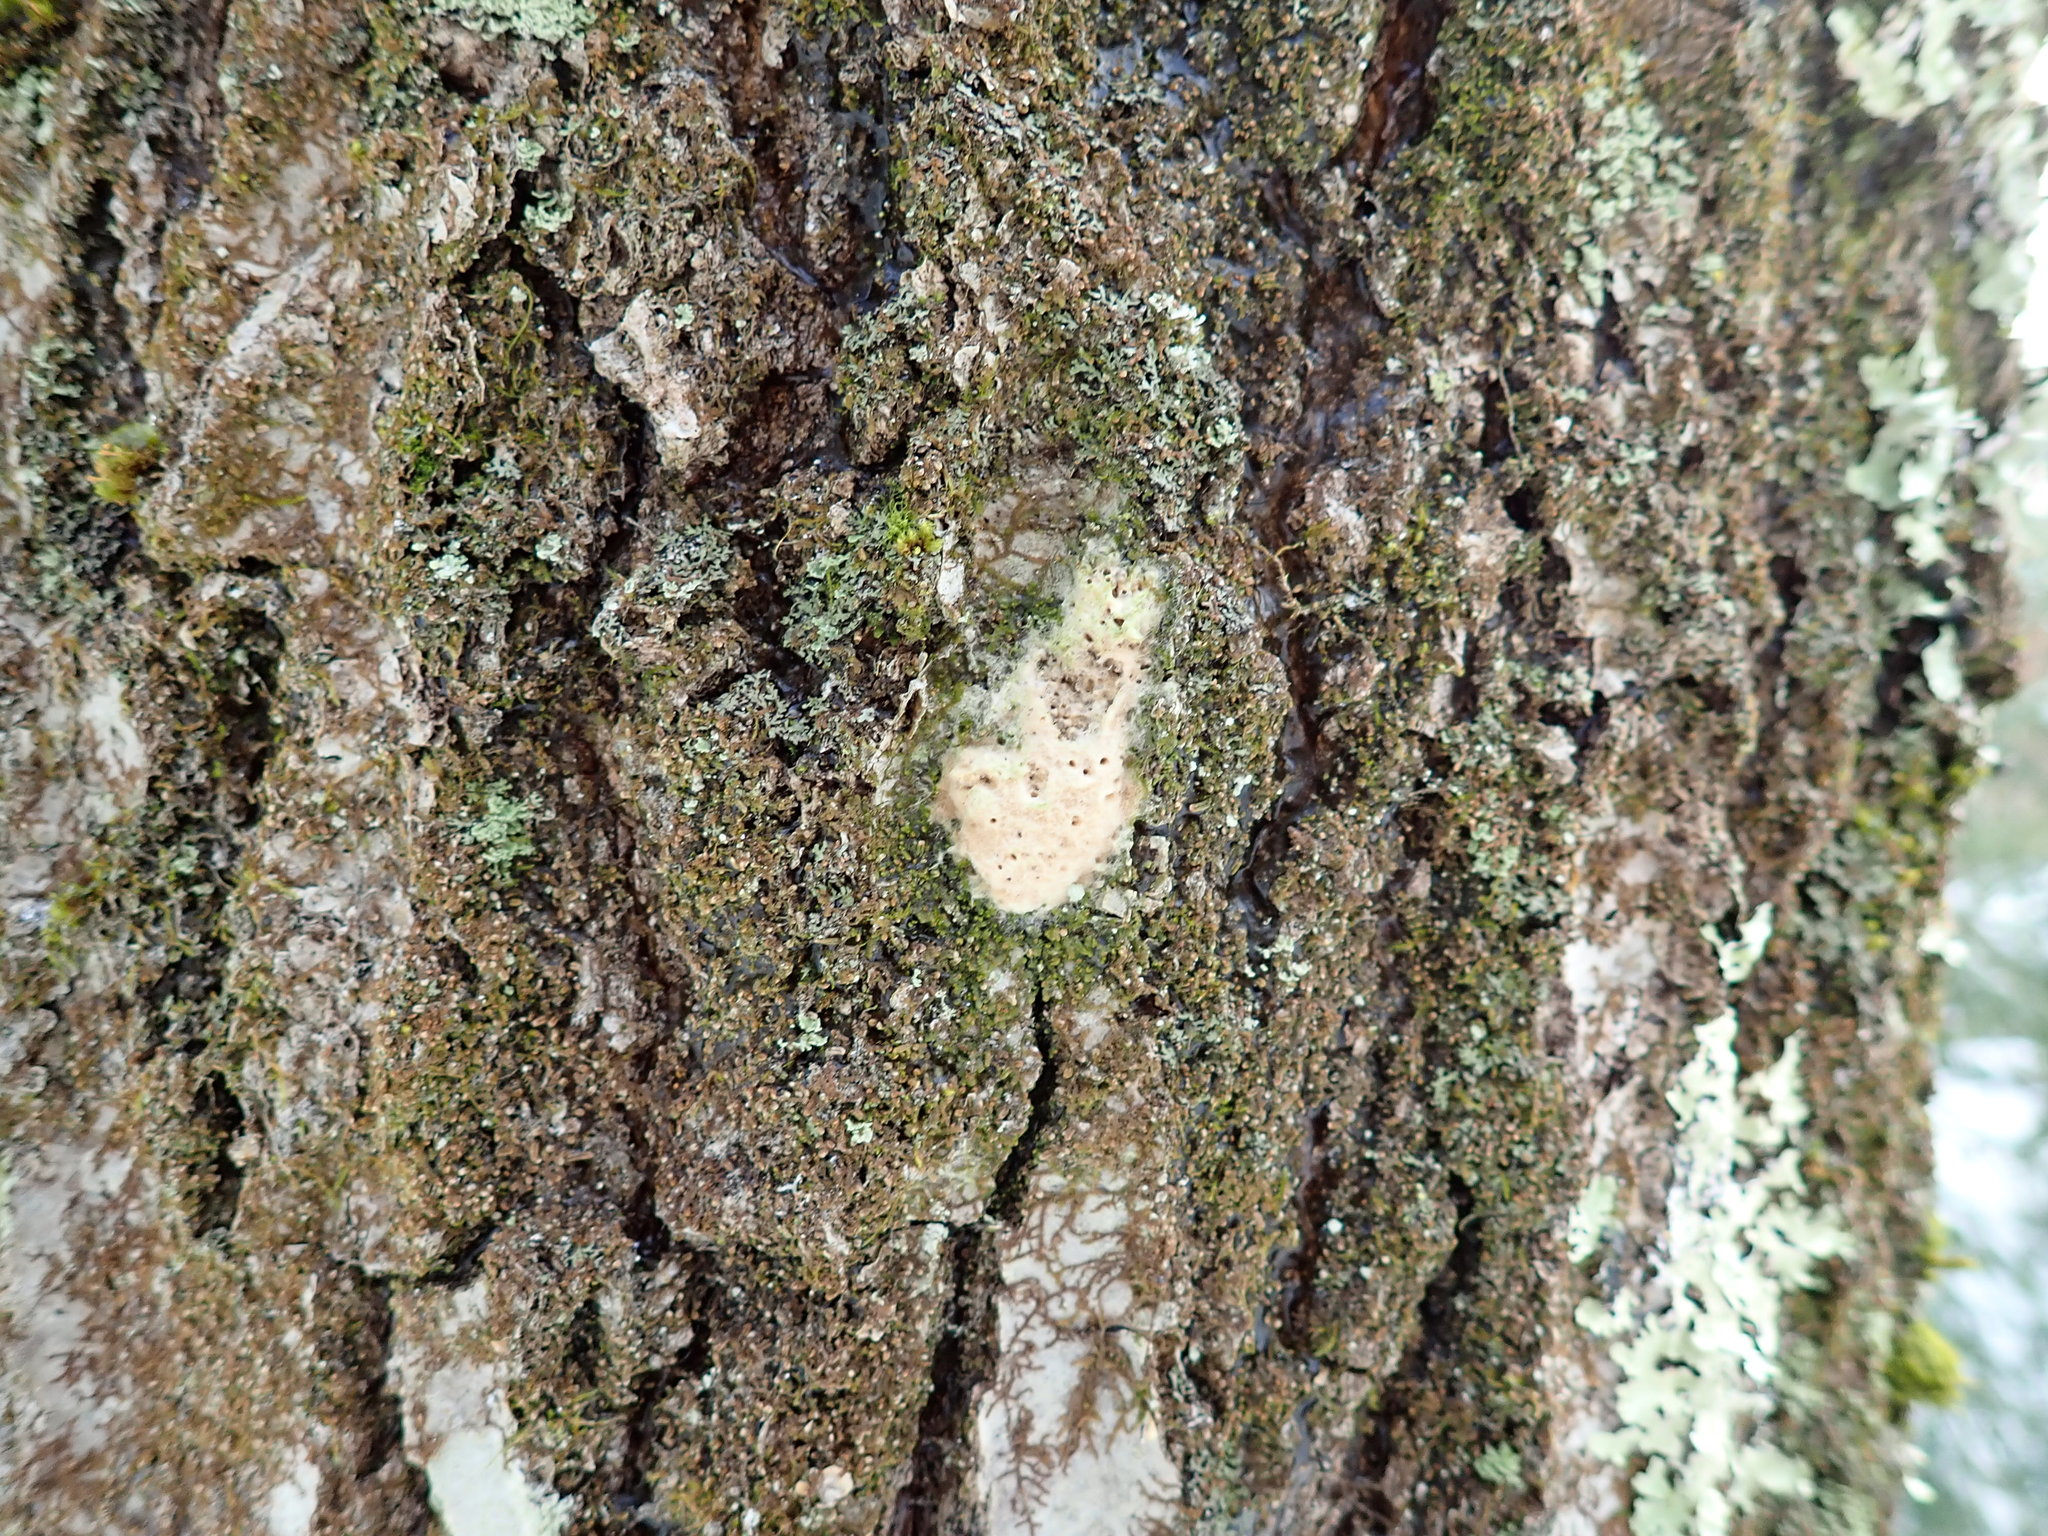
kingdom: Animalia
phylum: Arthropoda
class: Insecta
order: Lepidoptera
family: Erebidae
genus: Lymantria
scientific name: Lymantria dispar
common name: Gypsy moth
